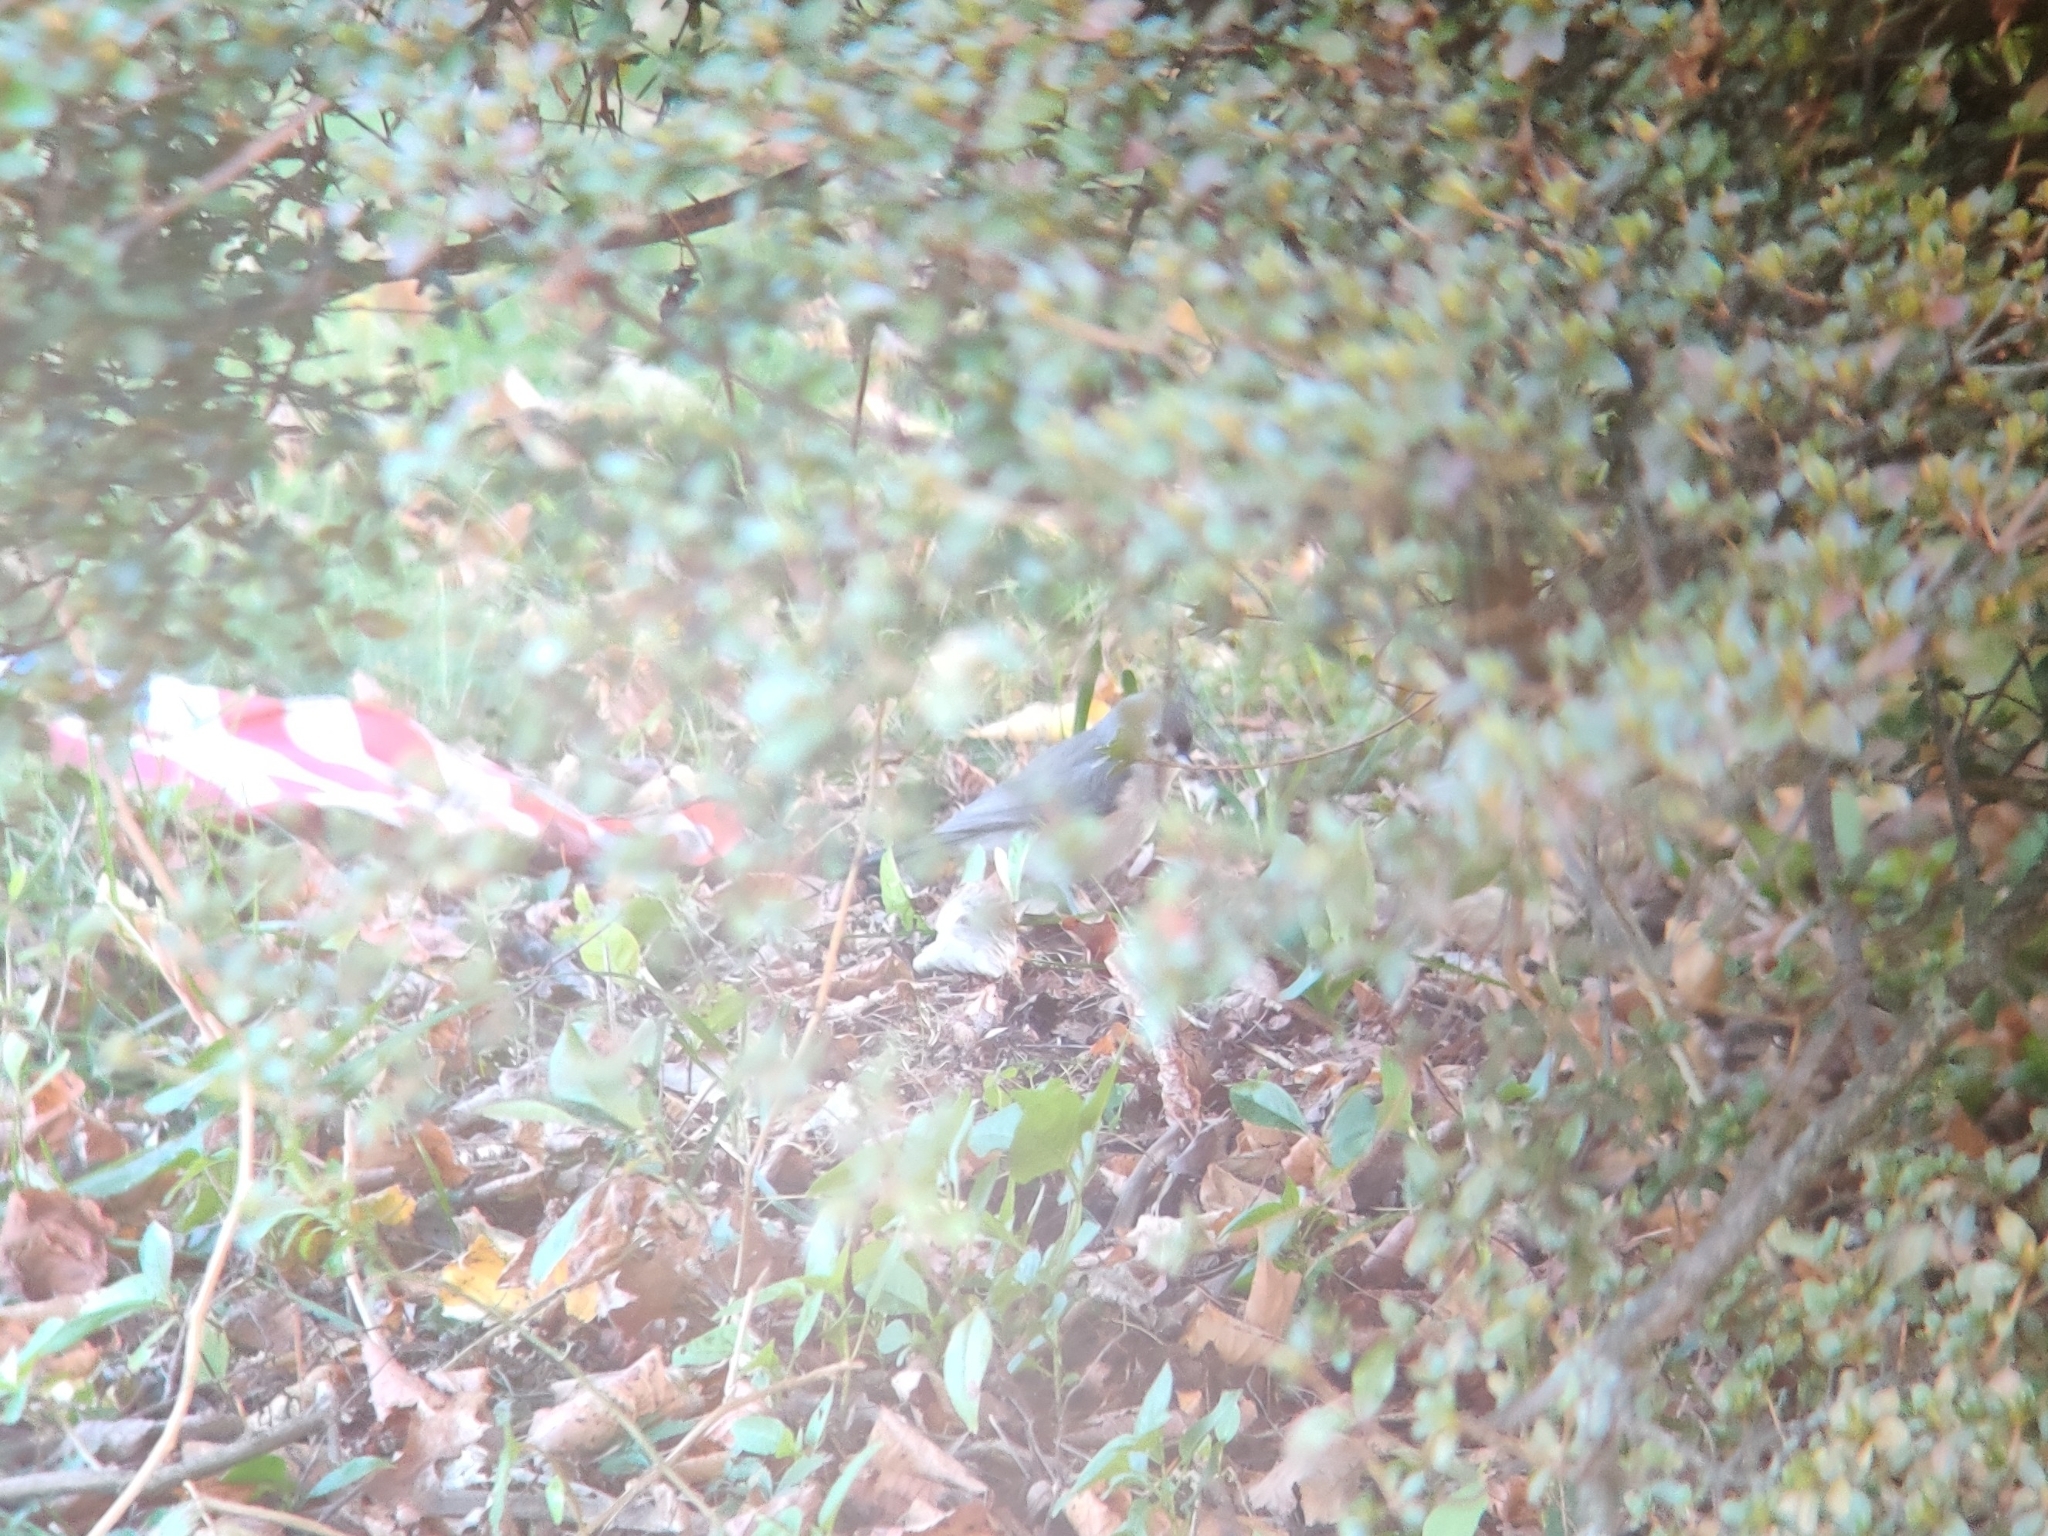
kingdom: Animalia
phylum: Chordata
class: Aves
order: Passeriformes
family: Paridae
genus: Baeolophus
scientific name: Baeolophus bicolor
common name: Tufted titmouse
